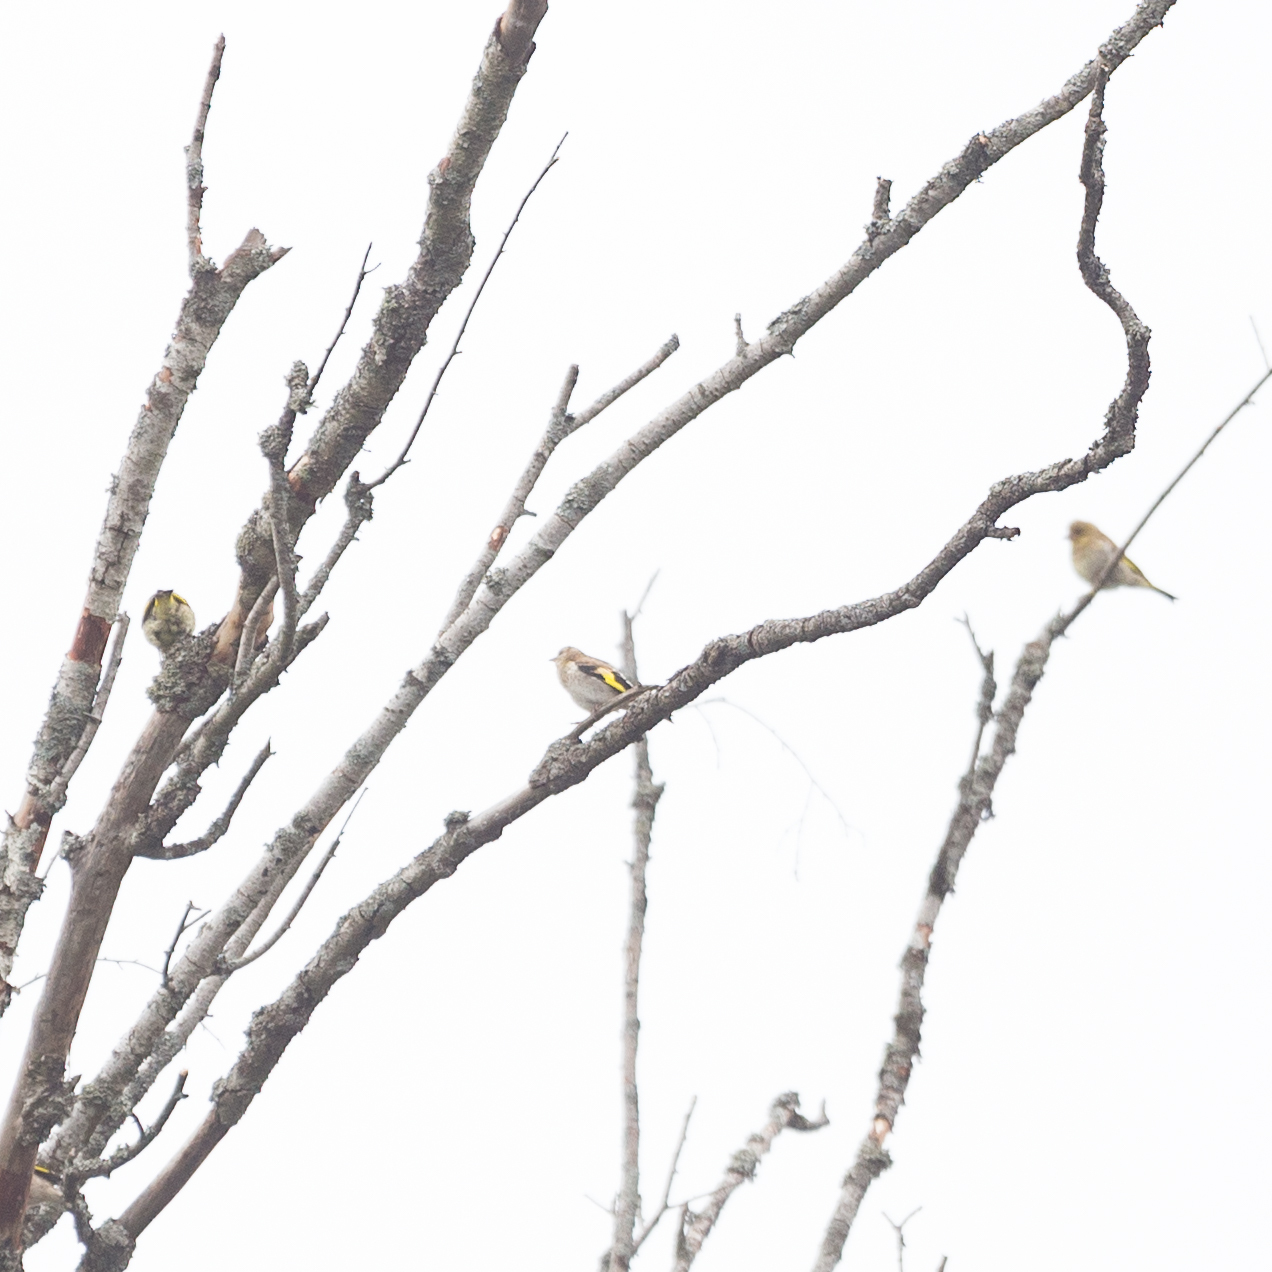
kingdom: Animalia
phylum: Chordata
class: Aves
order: Passeriformes
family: Fringillidae
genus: Carduelis
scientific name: Carduelis carduelis
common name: European goldfinch
